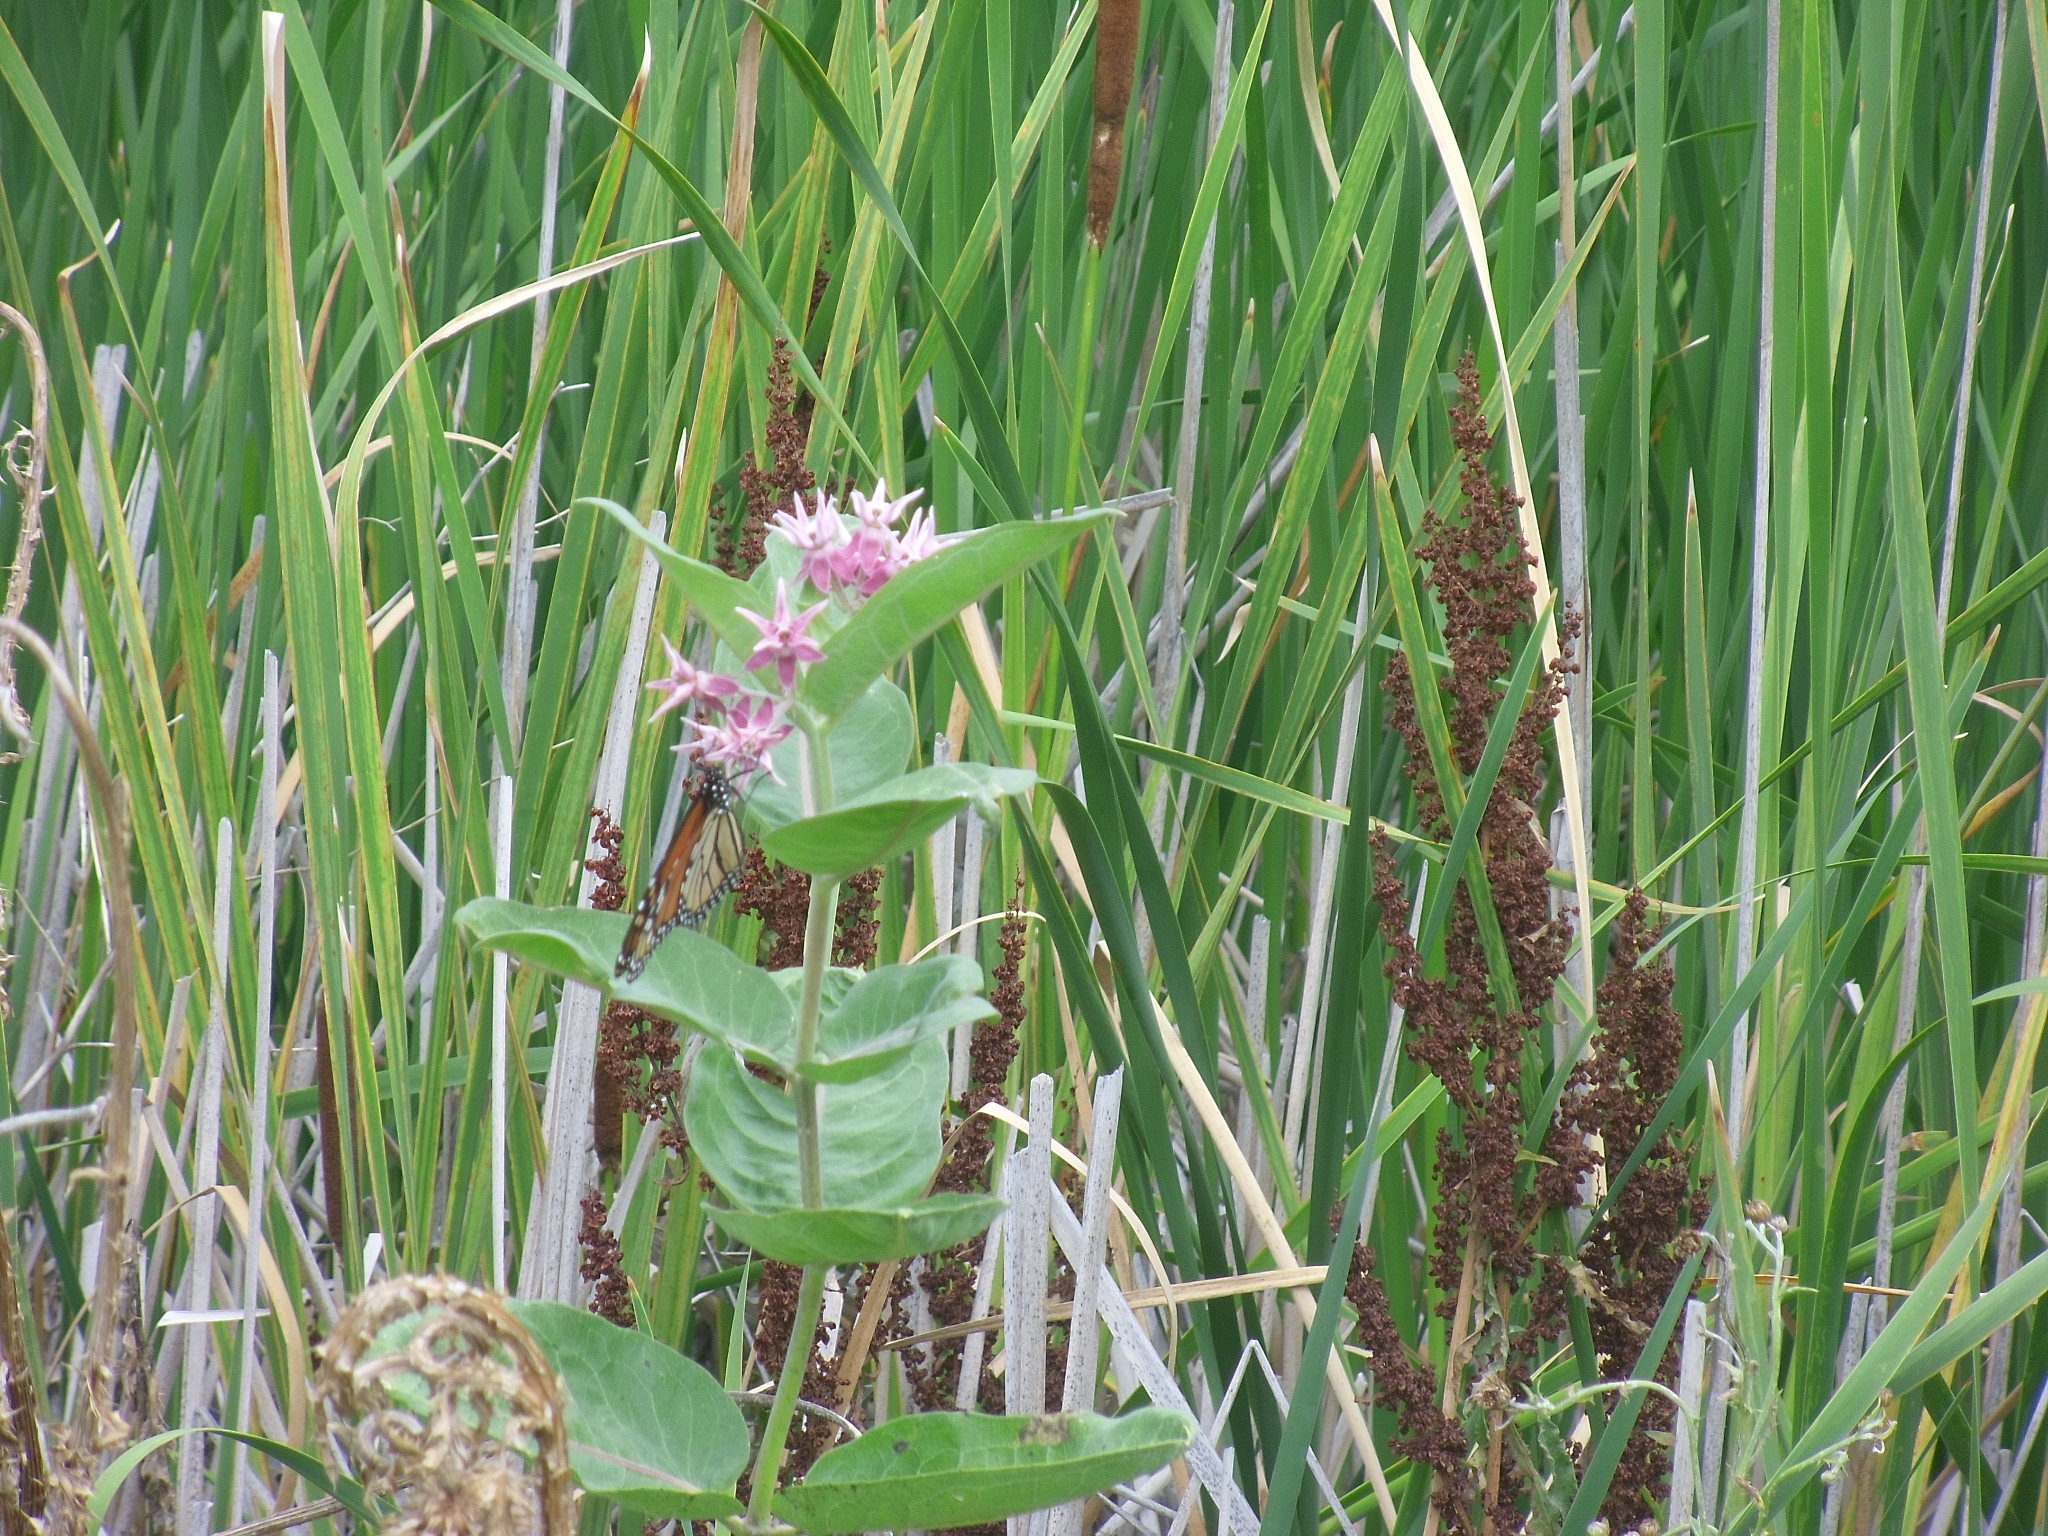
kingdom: Animalia
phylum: Arthropoda
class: Insecta
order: Lepidoptera
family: Nymphalidae
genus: Danaus
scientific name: Danaus plexippus
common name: Monarch
